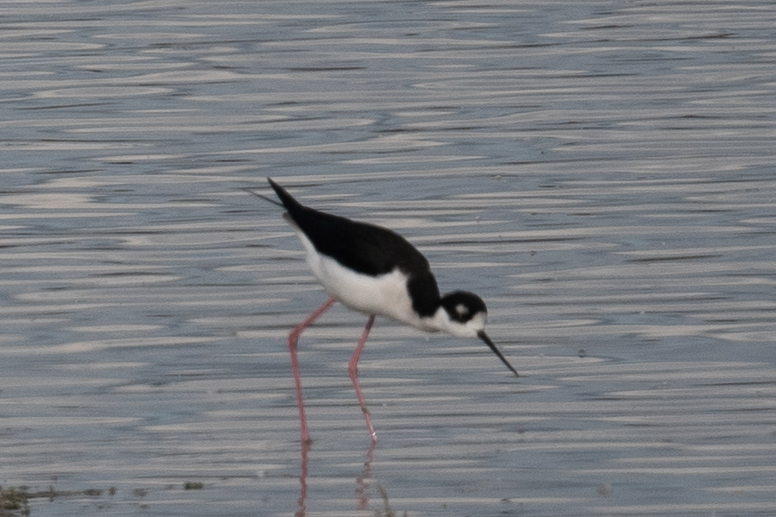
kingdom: Animalia
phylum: Chordata
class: Aves
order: Charadriiformes
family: Recurvirostridae
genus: Himantopus
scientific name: Himantopus mexicanus
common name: Black-necked stilt
